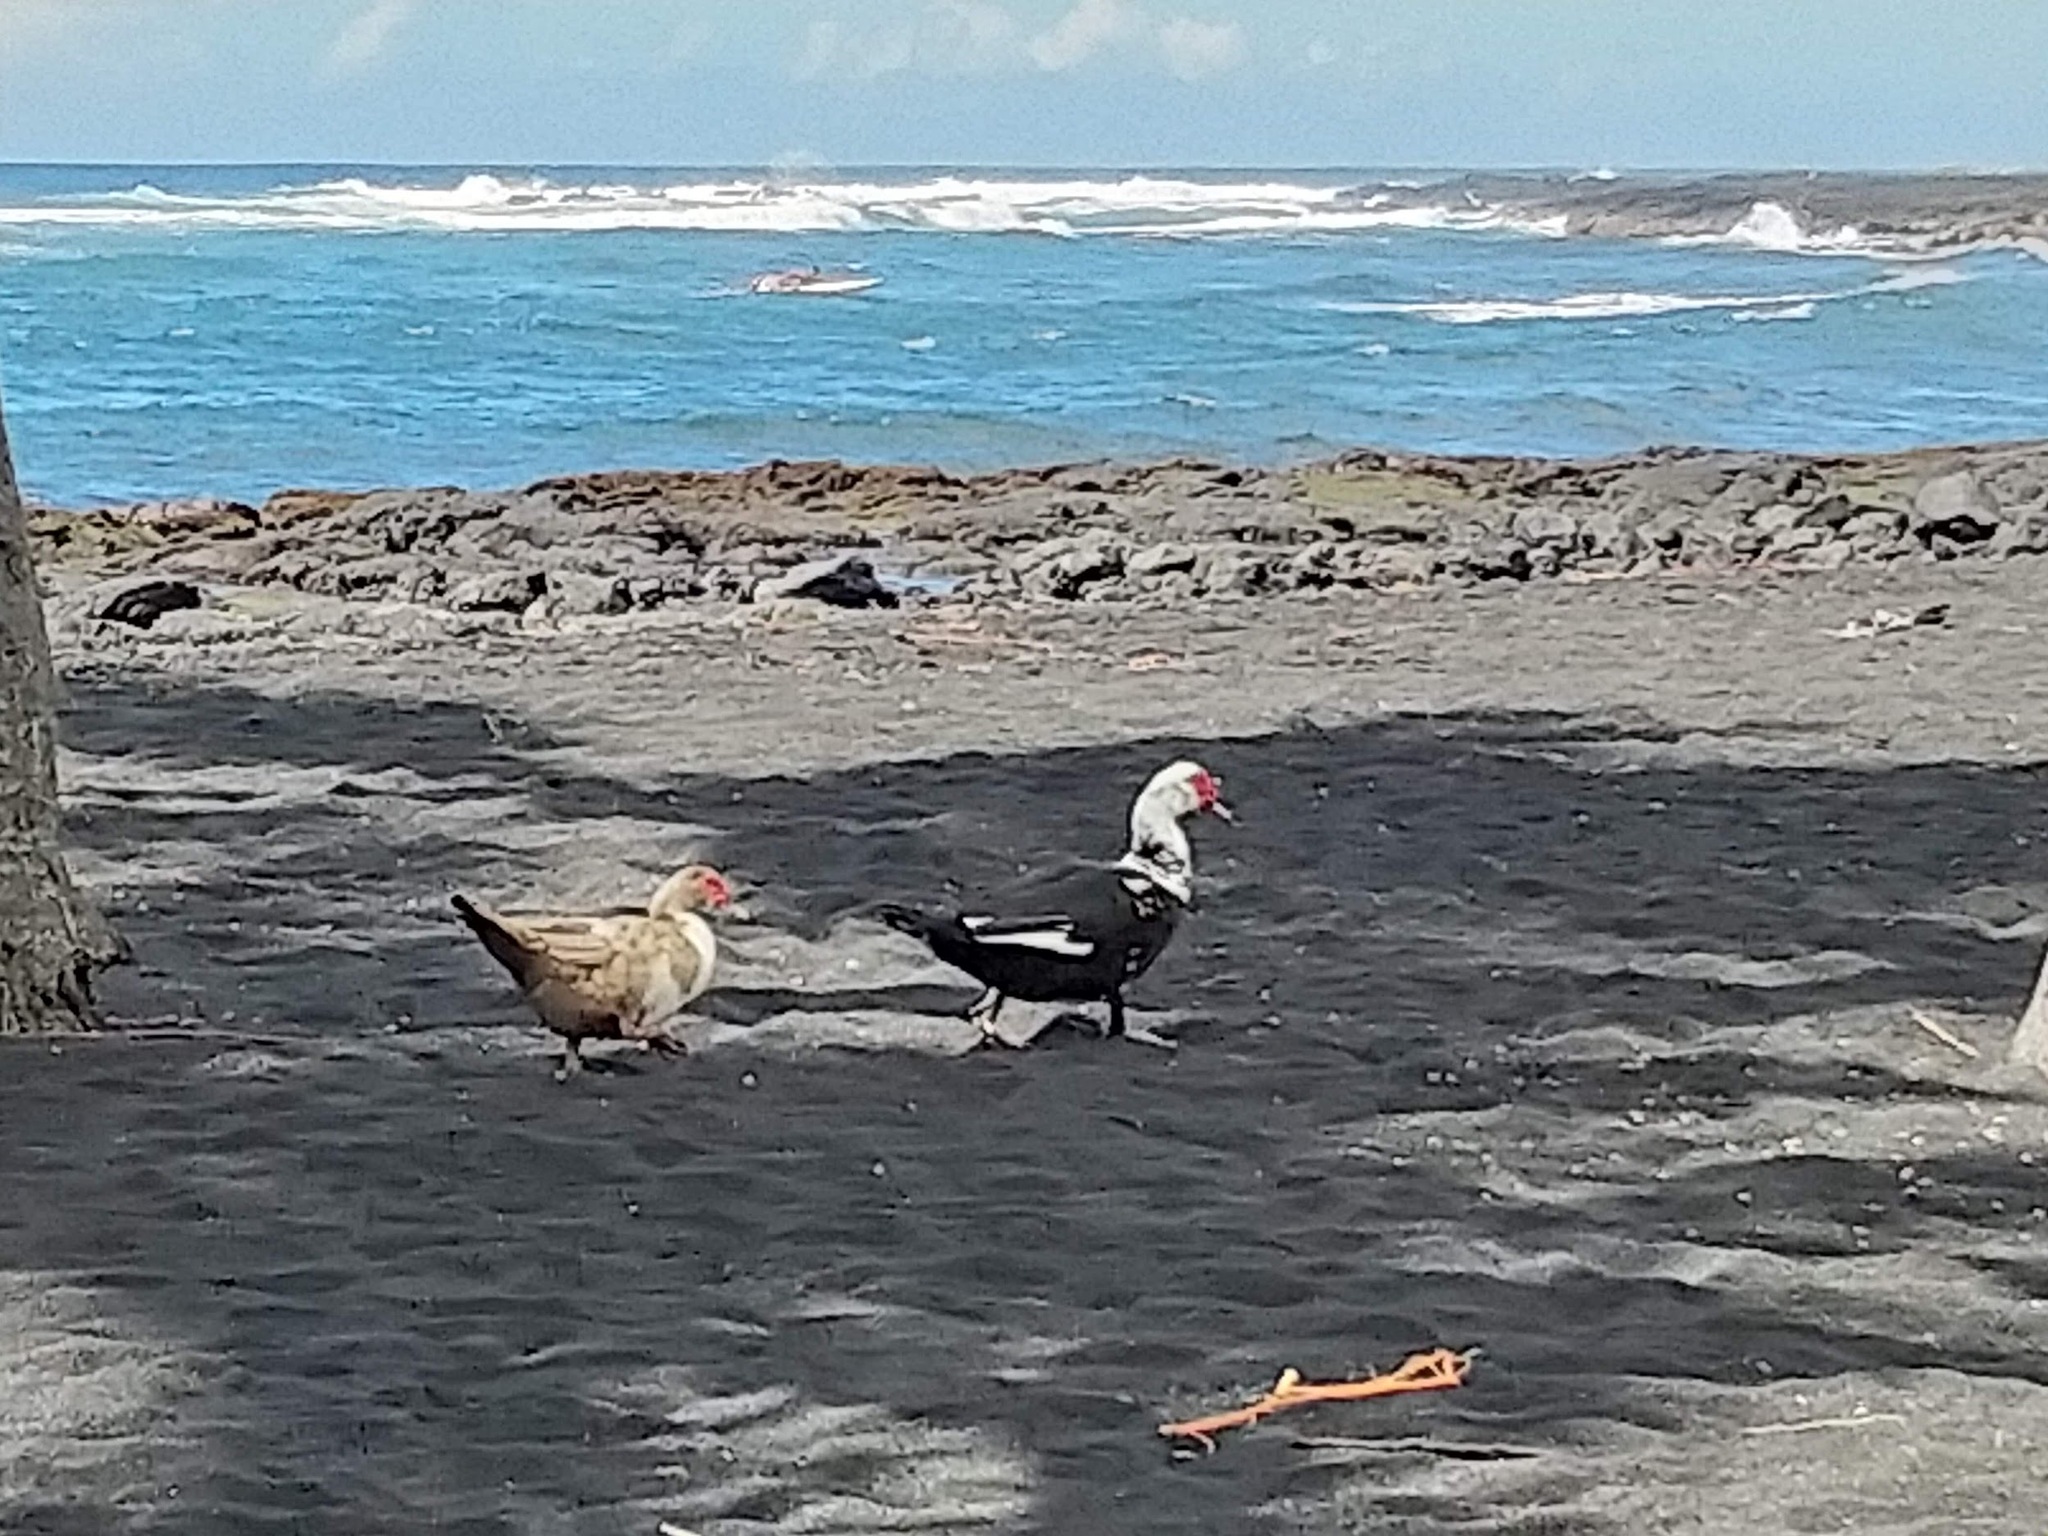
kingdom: Animalia
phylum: Chordata
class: Aves
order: Anseriformes
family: Anatidae
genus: Cairina
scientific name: Cairina moschata
